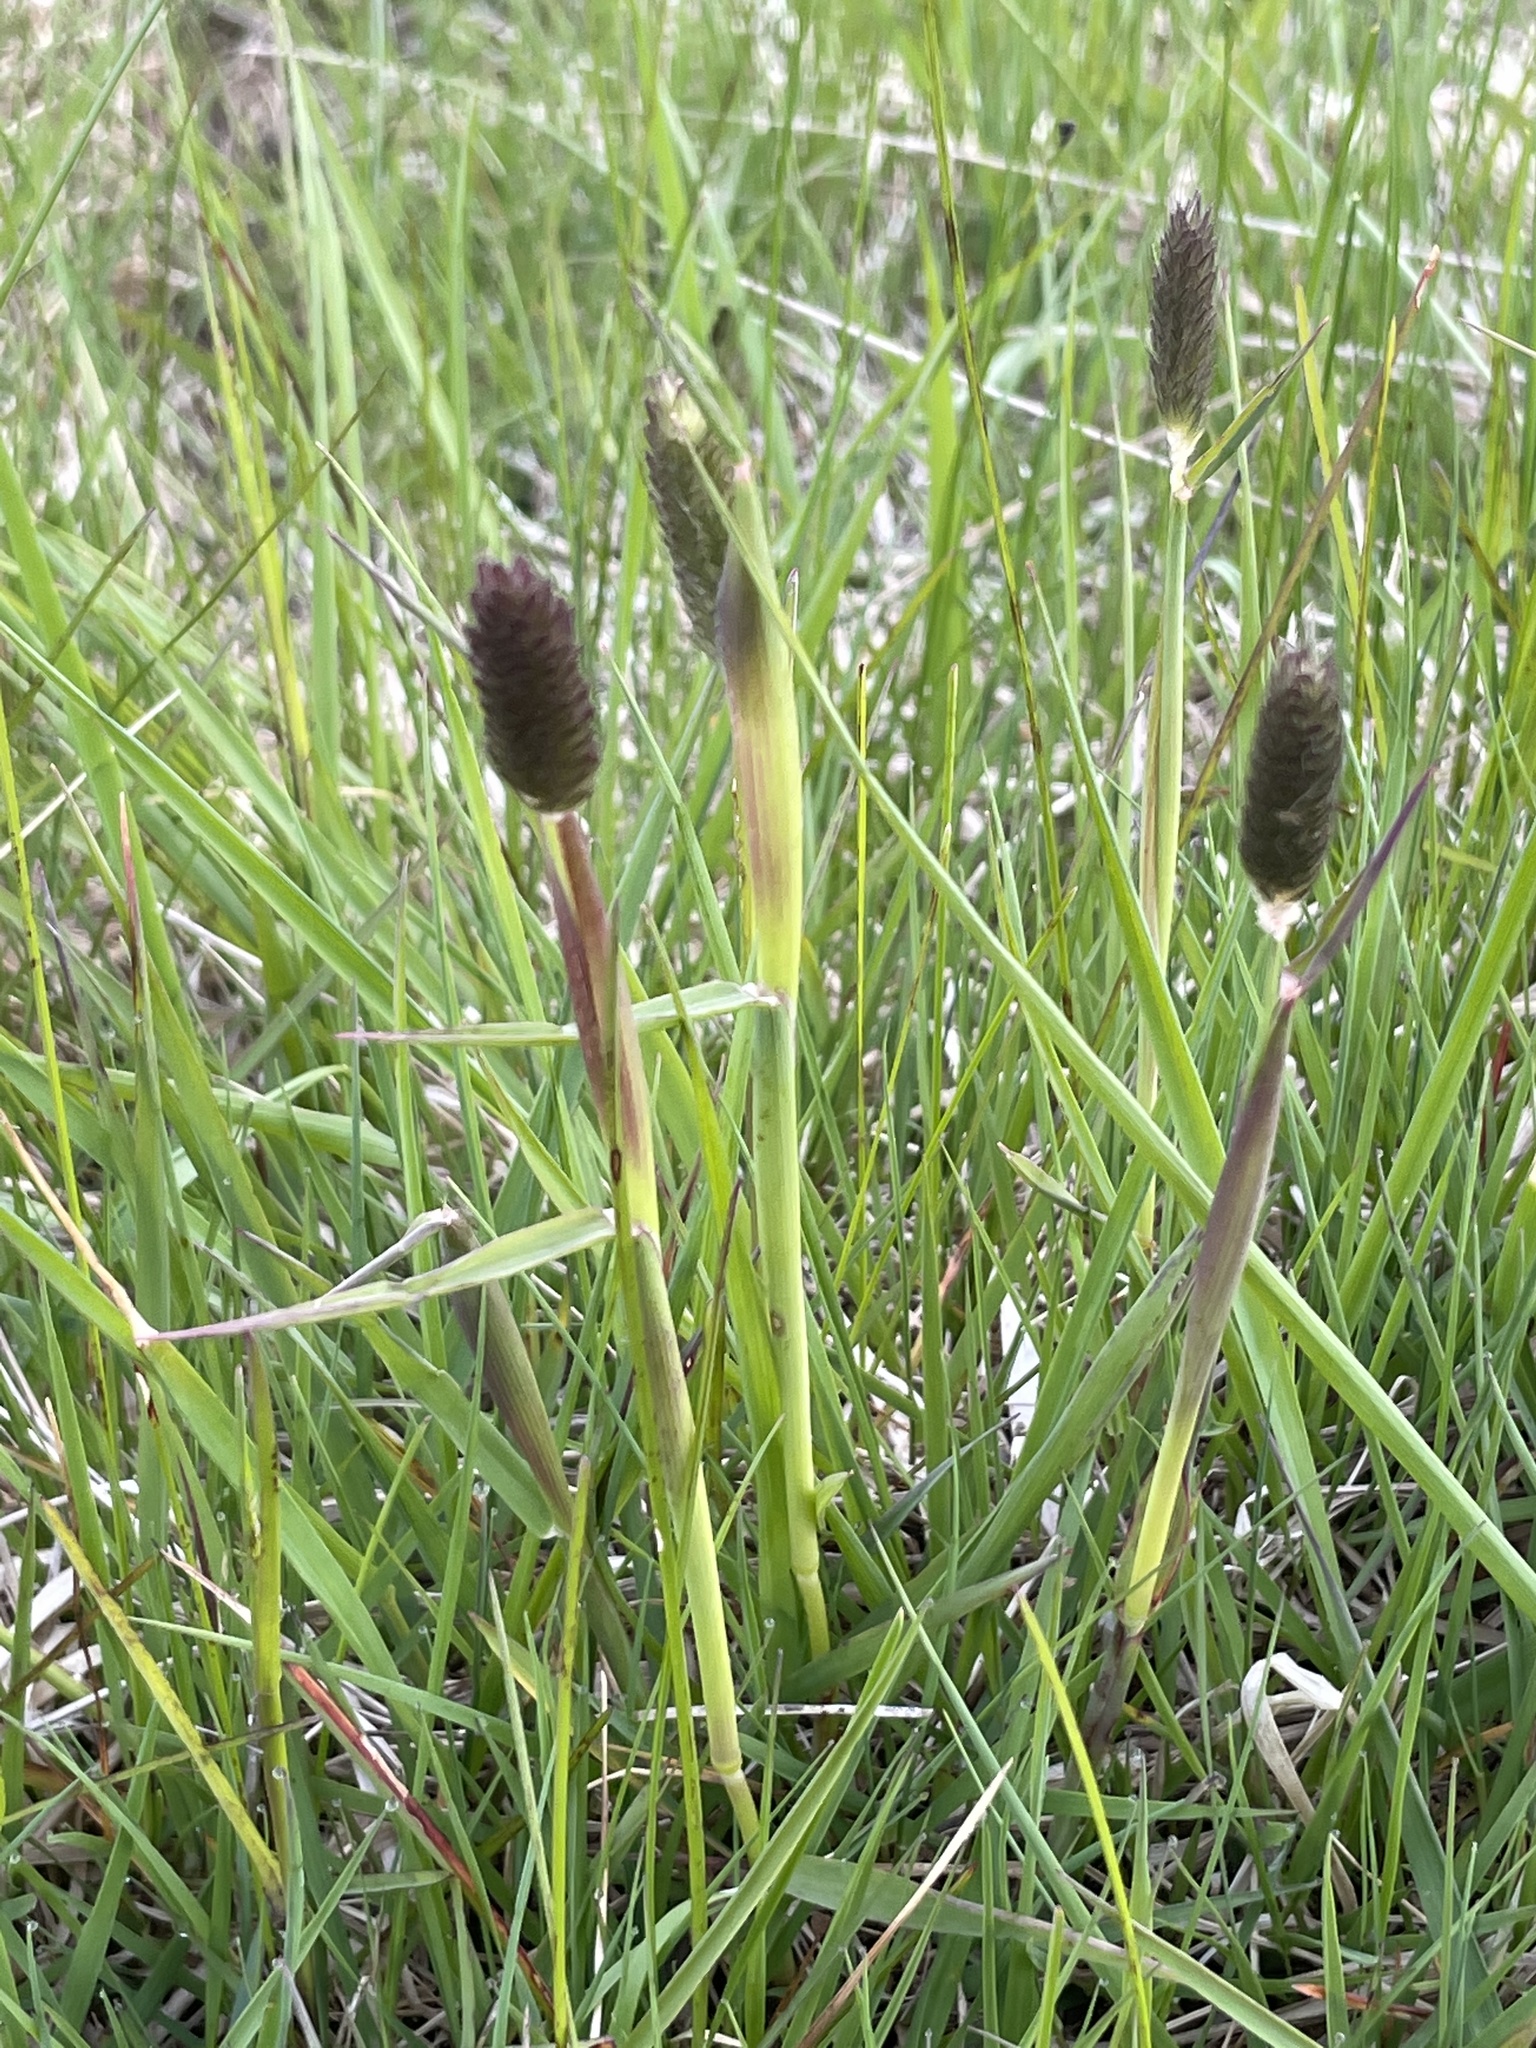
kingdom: Plantae
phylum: Tracheophyta
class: Liliopsida
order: Poales
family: Poaceae
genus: Alopecurus
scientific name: Alopecurus pratensis
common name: Meadow foxtail
